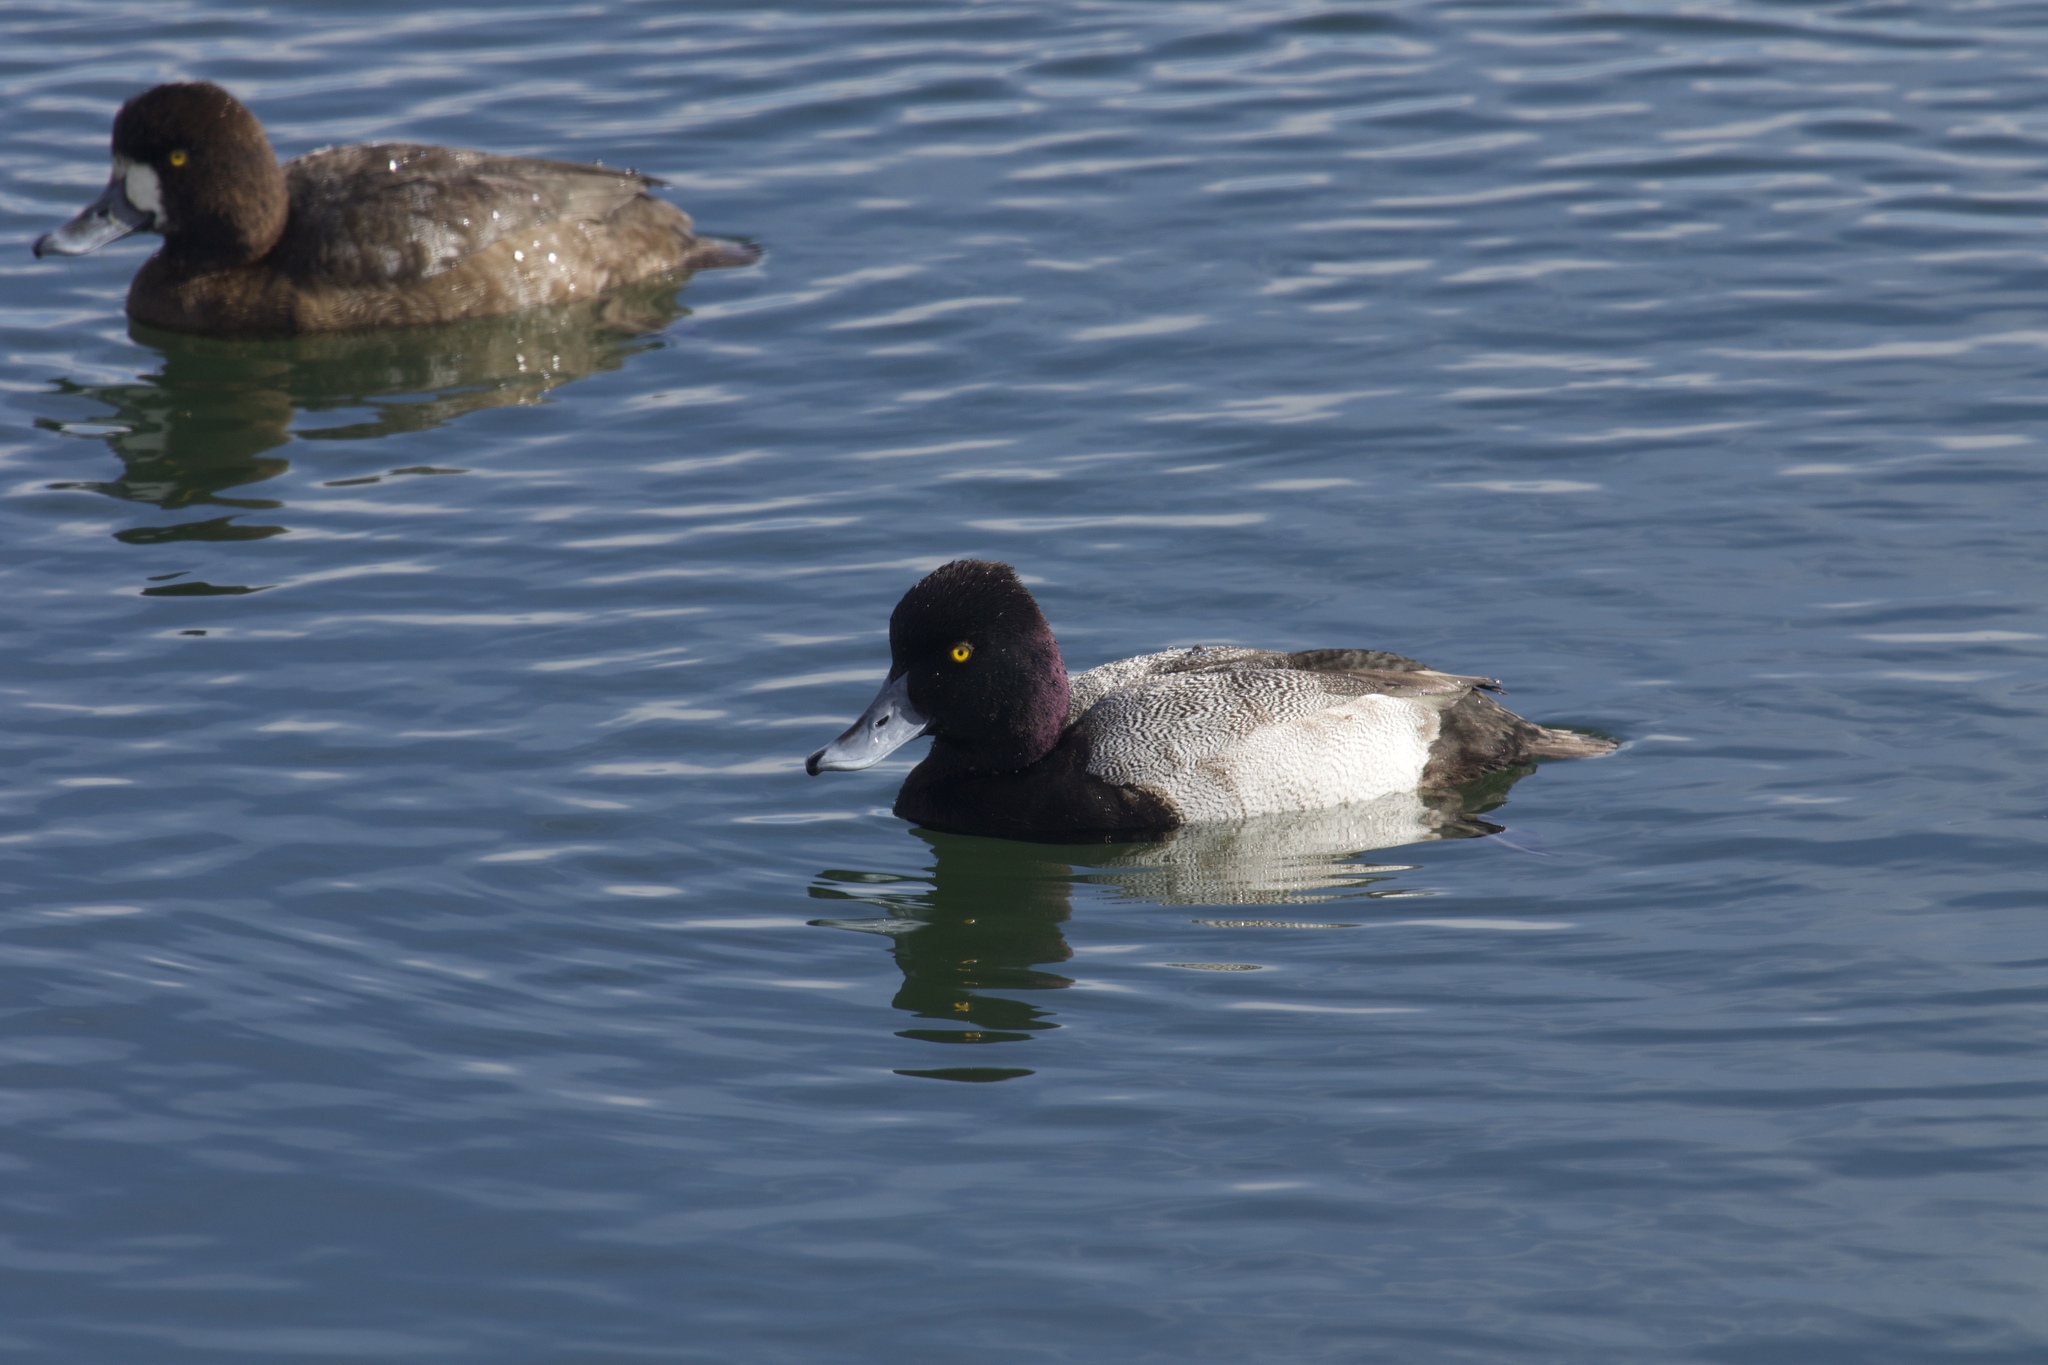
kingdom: Animalia
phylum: Chordata
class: Aves
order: Anseriformes
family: Anatidae
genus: Aythya
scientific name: Aythya affinis
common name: Lesser scaup
